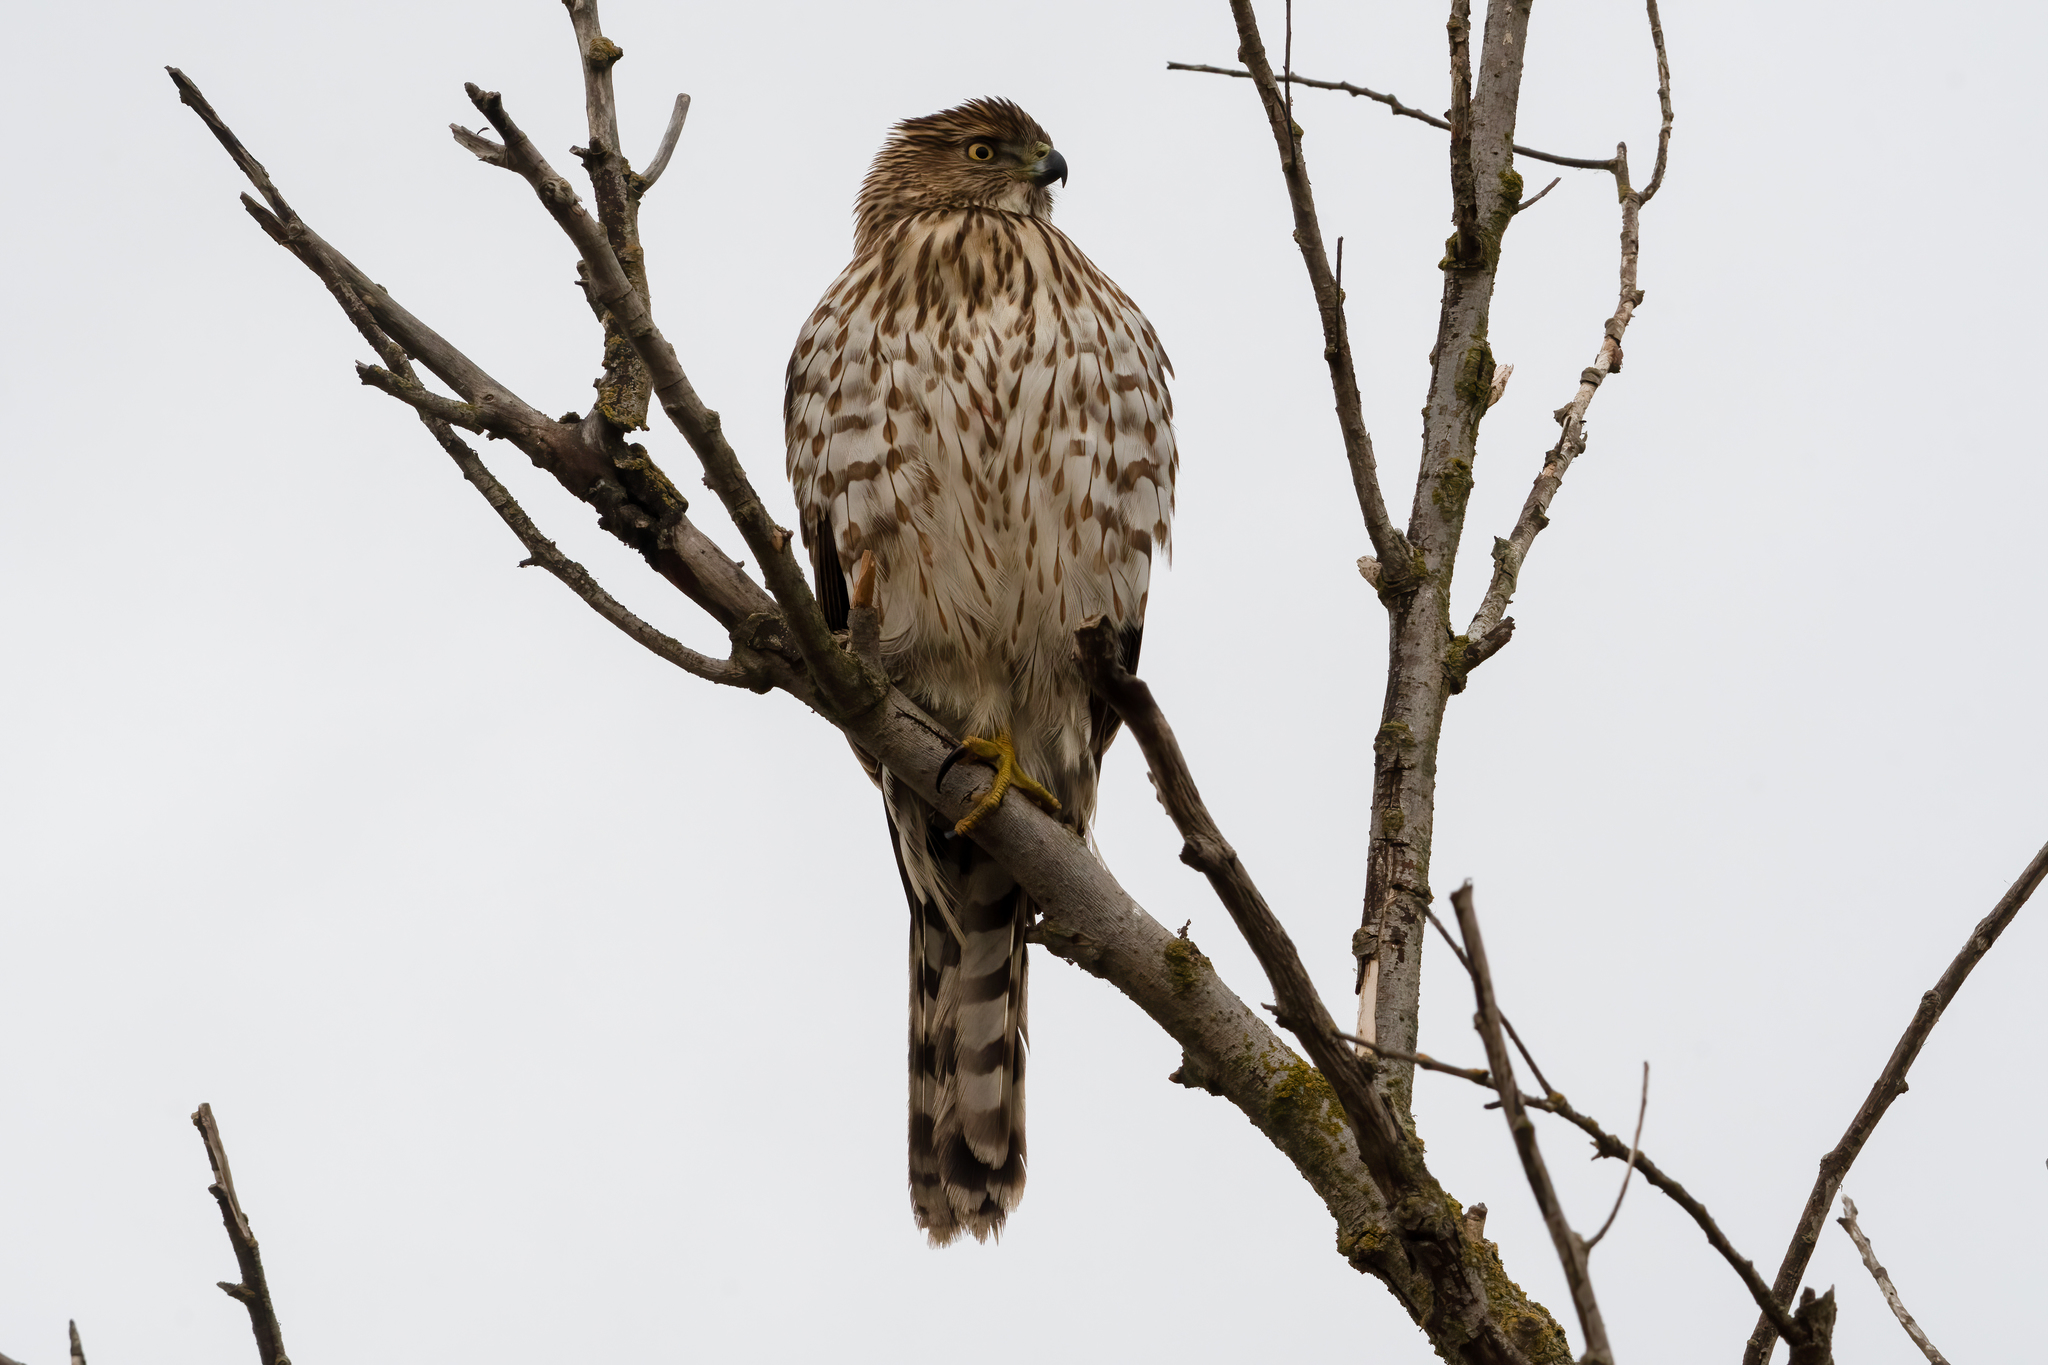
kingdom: Animalia
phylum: Chordata
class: Aves
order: Accipitriformes
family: Accipitridae
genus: Accipiter
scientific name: Accipiter cooperii
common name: Cooper's hawk
